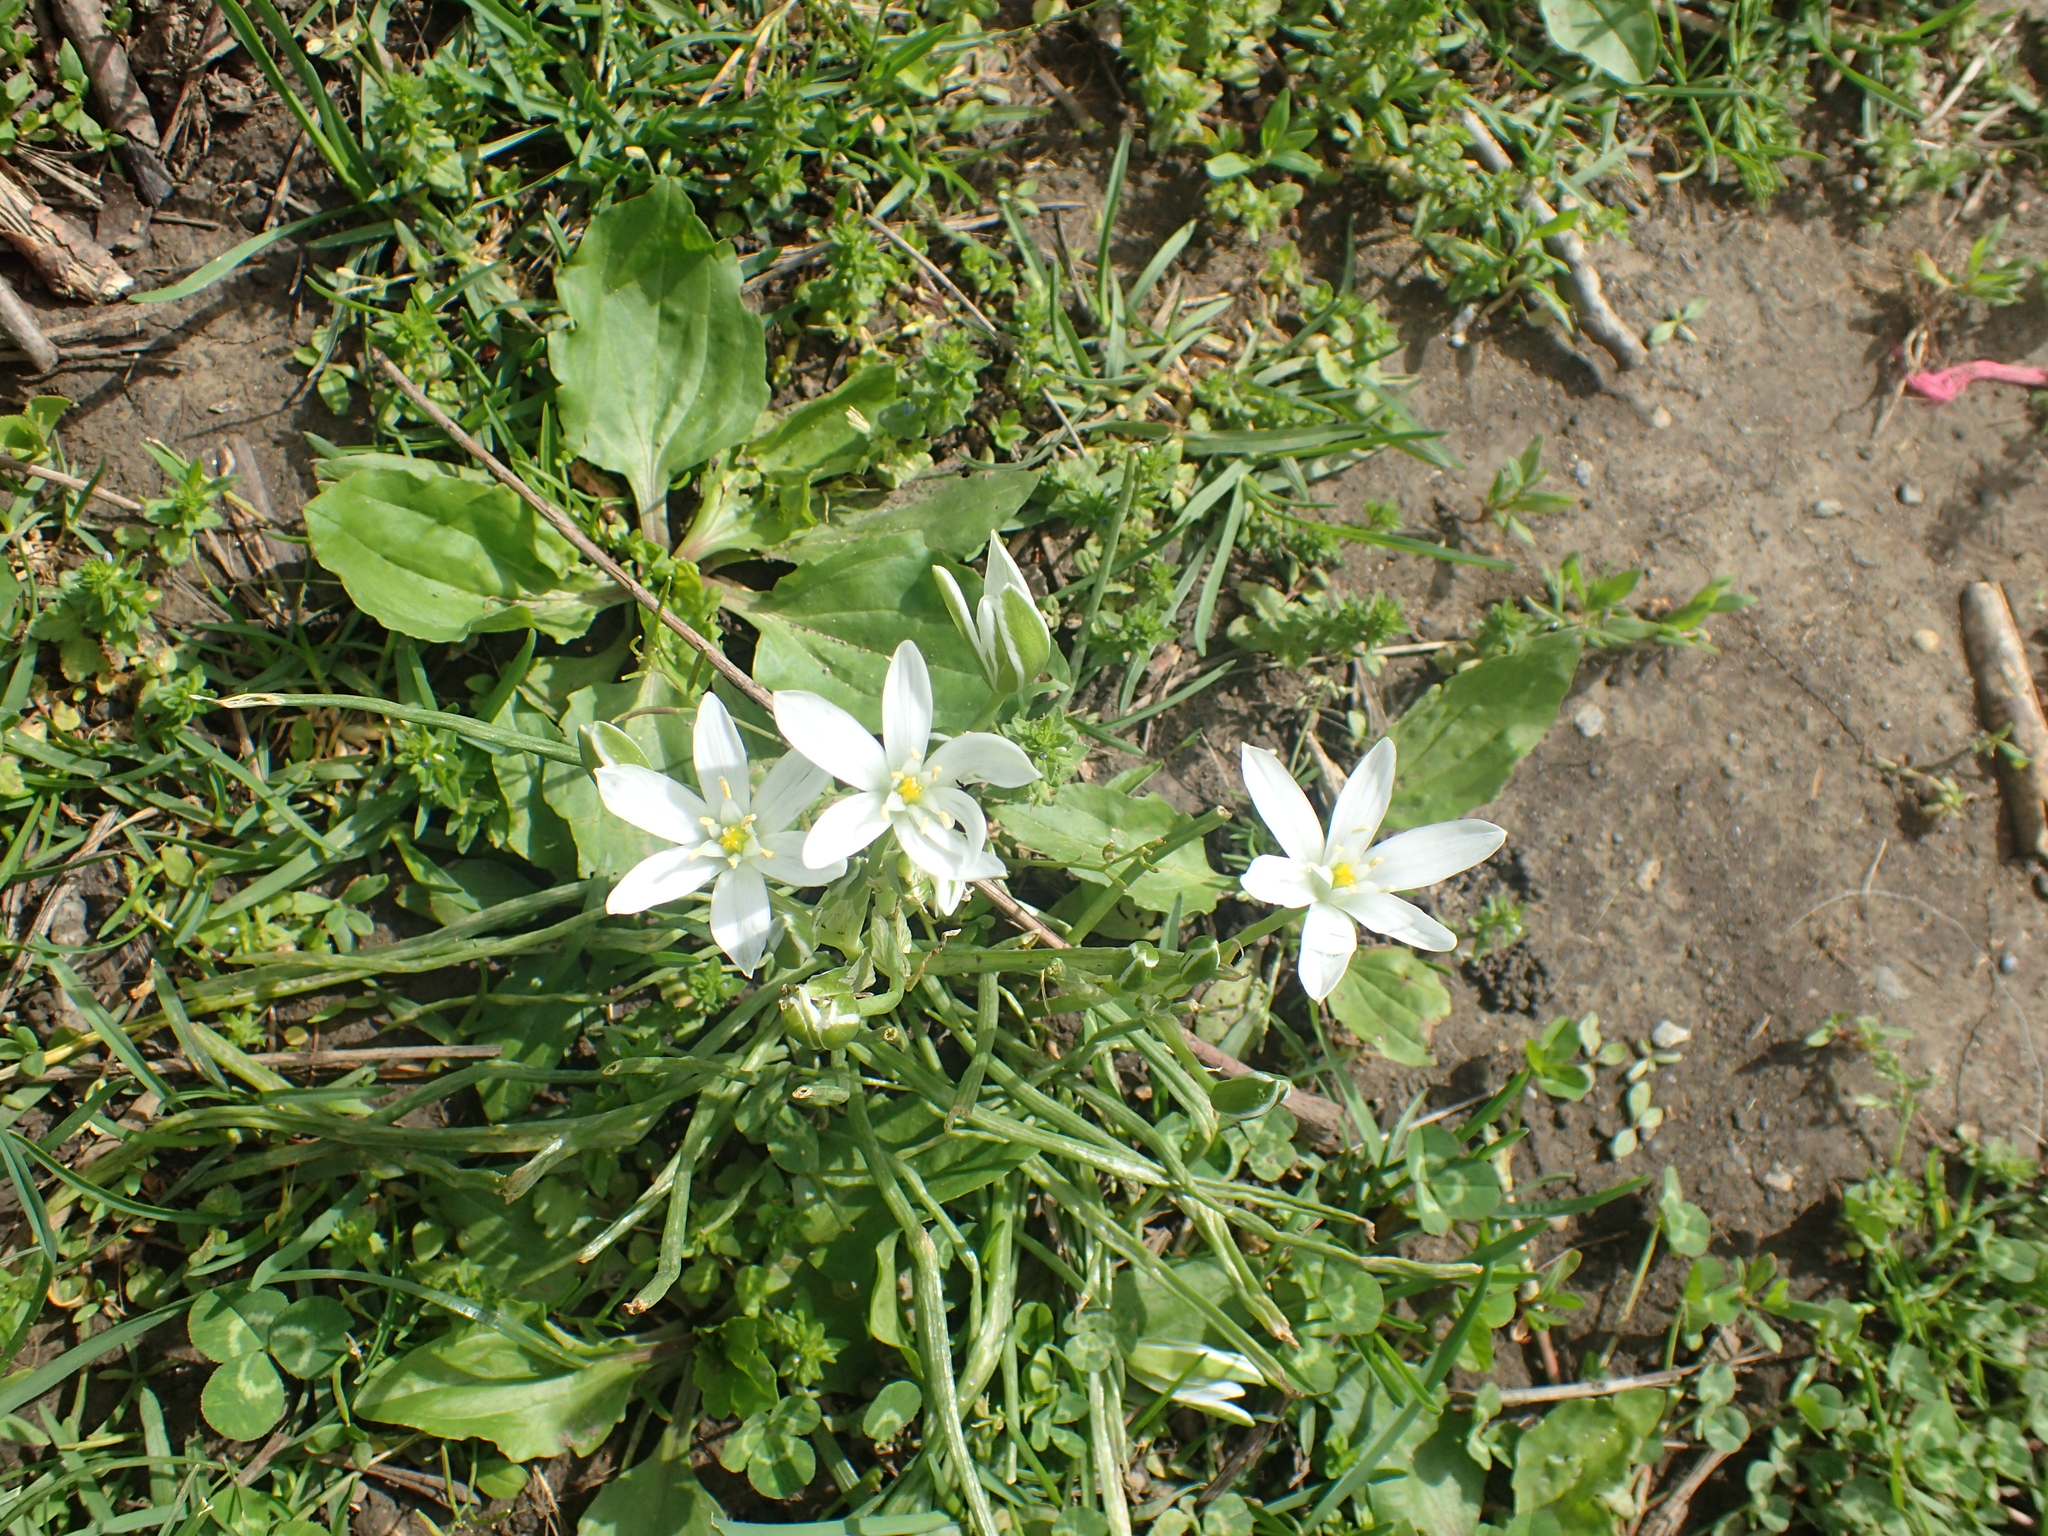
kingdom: Plantae
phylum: Tracheophyta
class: Liliopsida
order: Asparagales
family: Asparagaceae
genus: Ornithogalum
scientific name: Ornithogalum umbellatum
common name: Garden star-of-bethlehem
